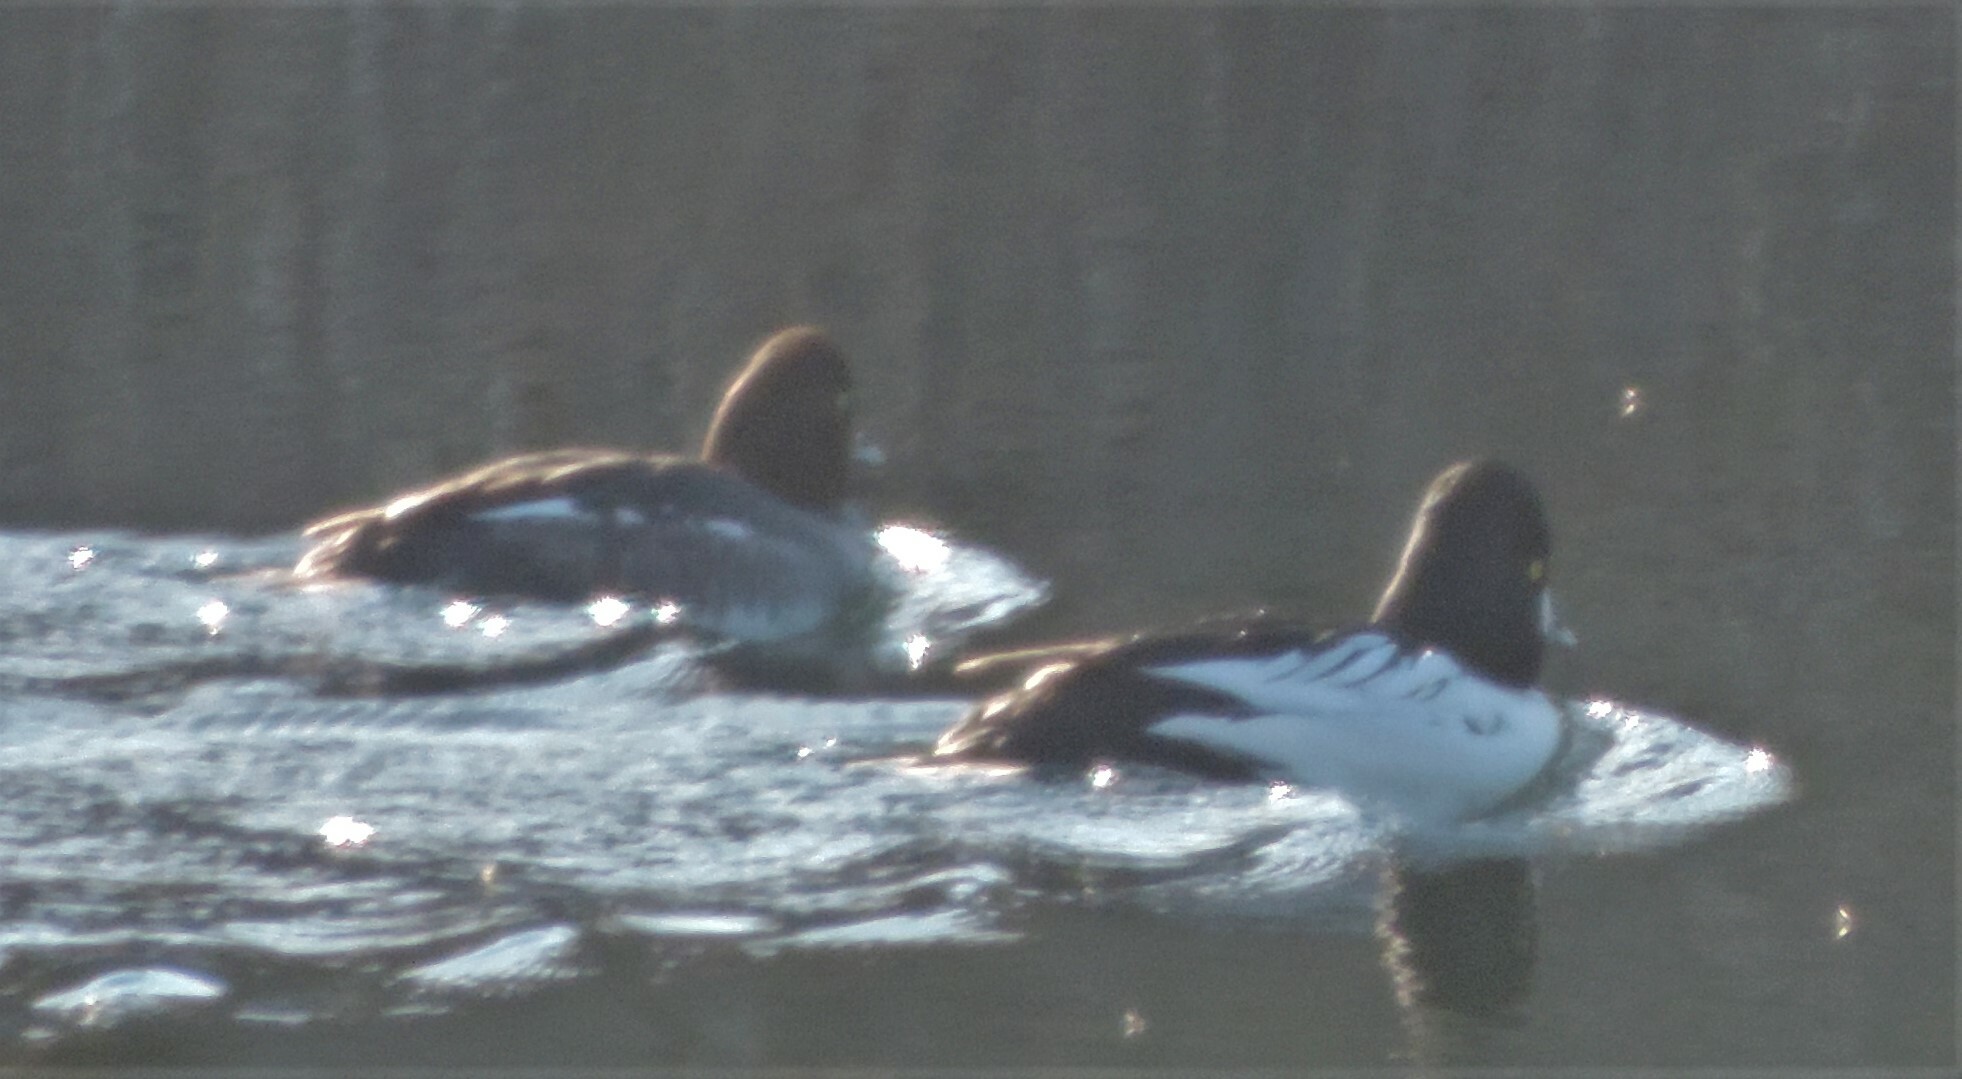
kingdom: Animalia
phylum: Chordata
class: Aves
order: Anseriformes
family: Anatidae
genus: Bucephala
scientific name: Bucephala clangula
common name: Common goldeneye
